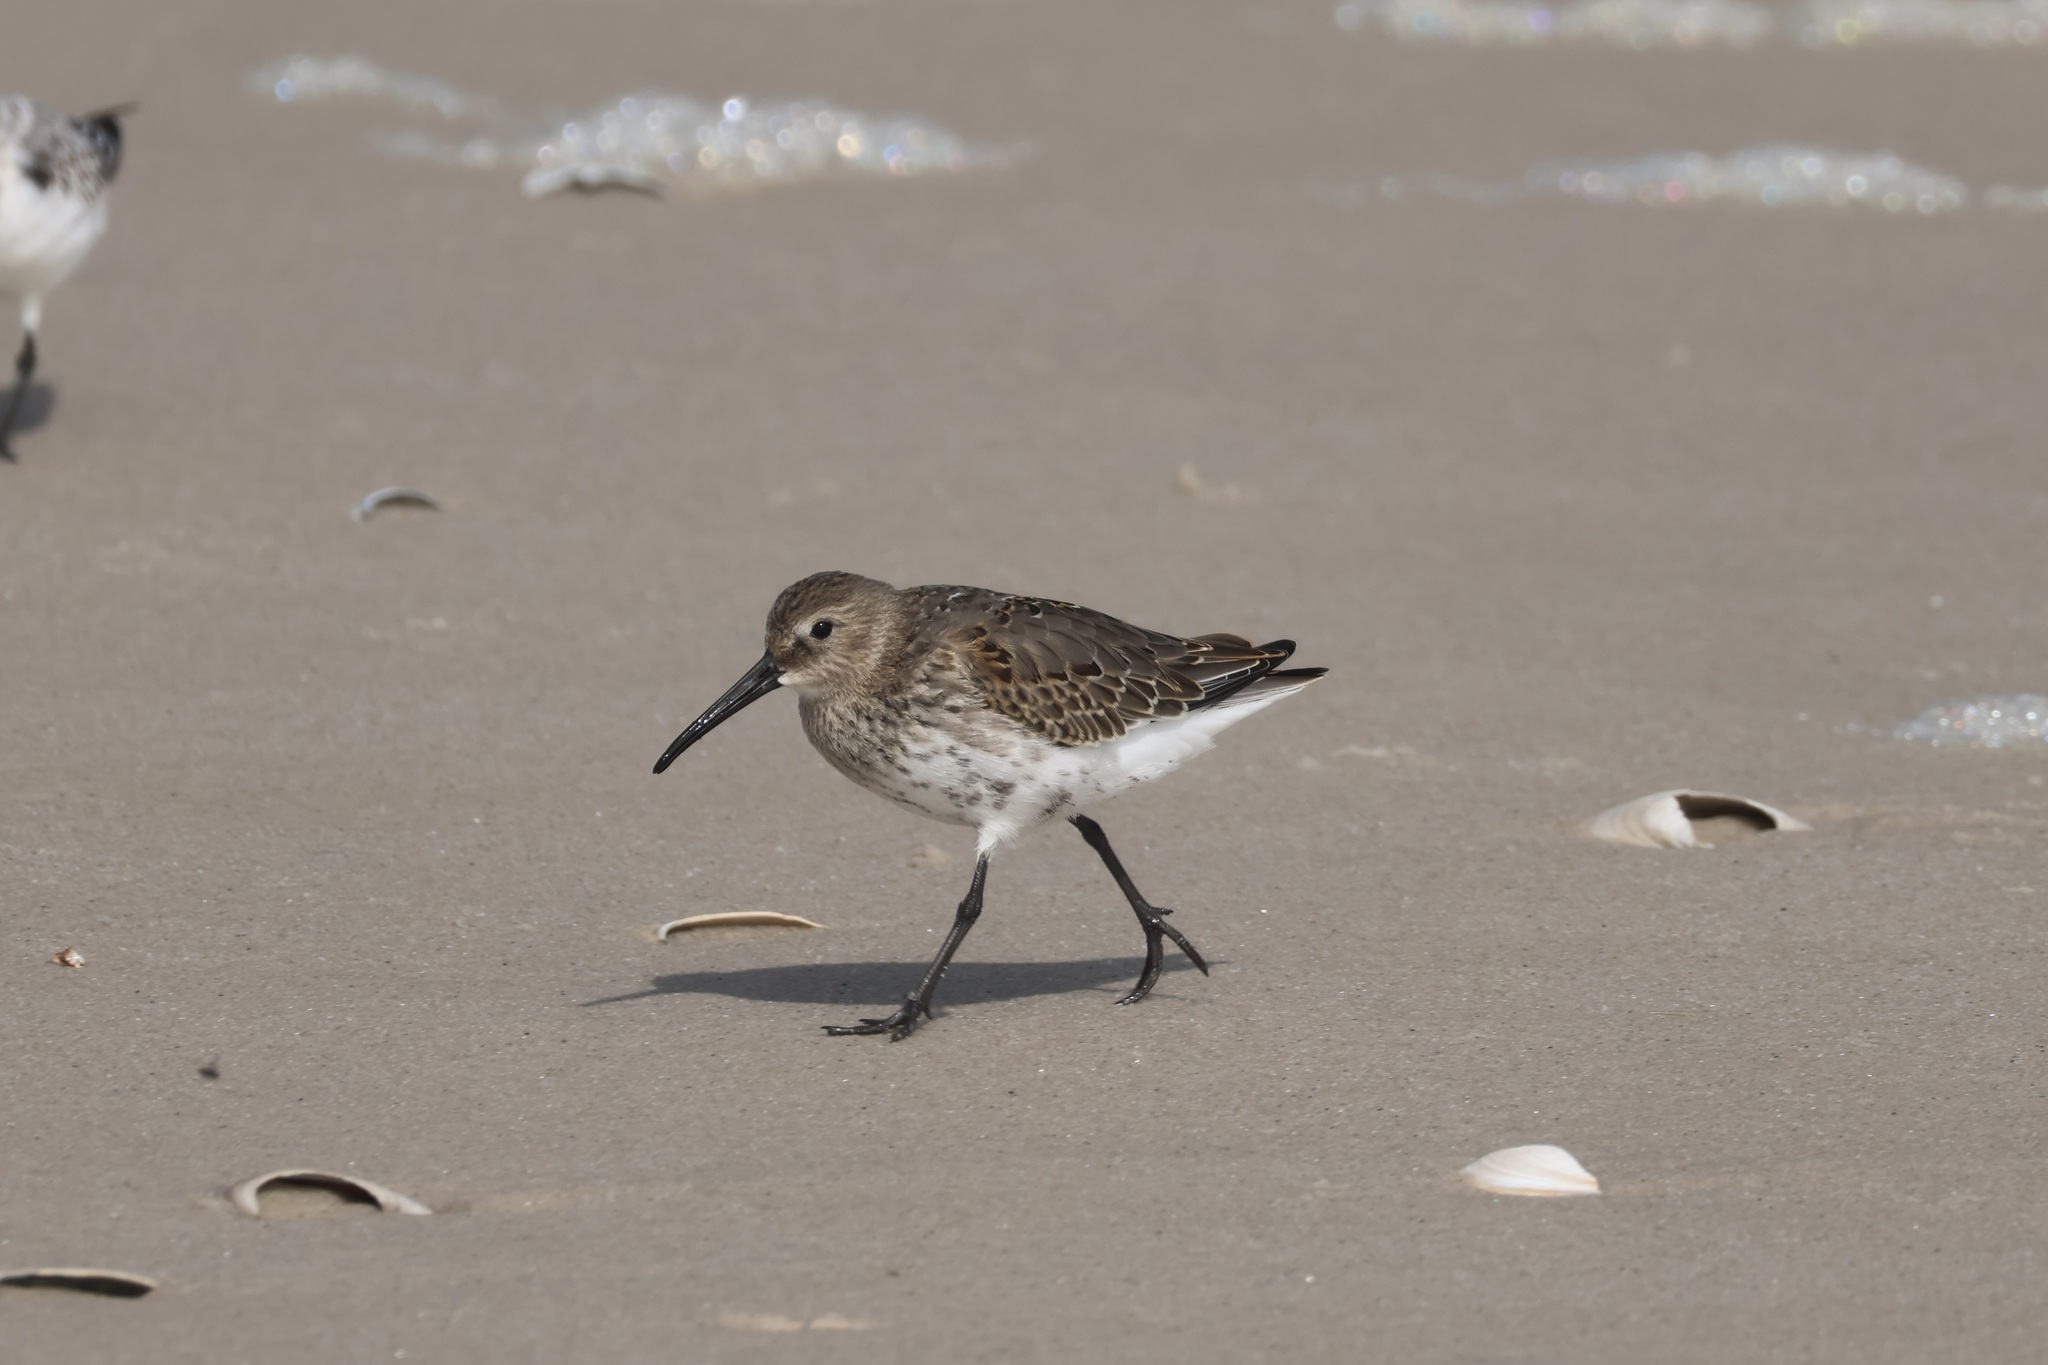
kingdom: Animalia
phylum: Chordata
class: Aves
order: Charadriiformes
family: Scolopacidae
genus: Calidris
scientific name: Calidris alpina
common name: Dunlin
